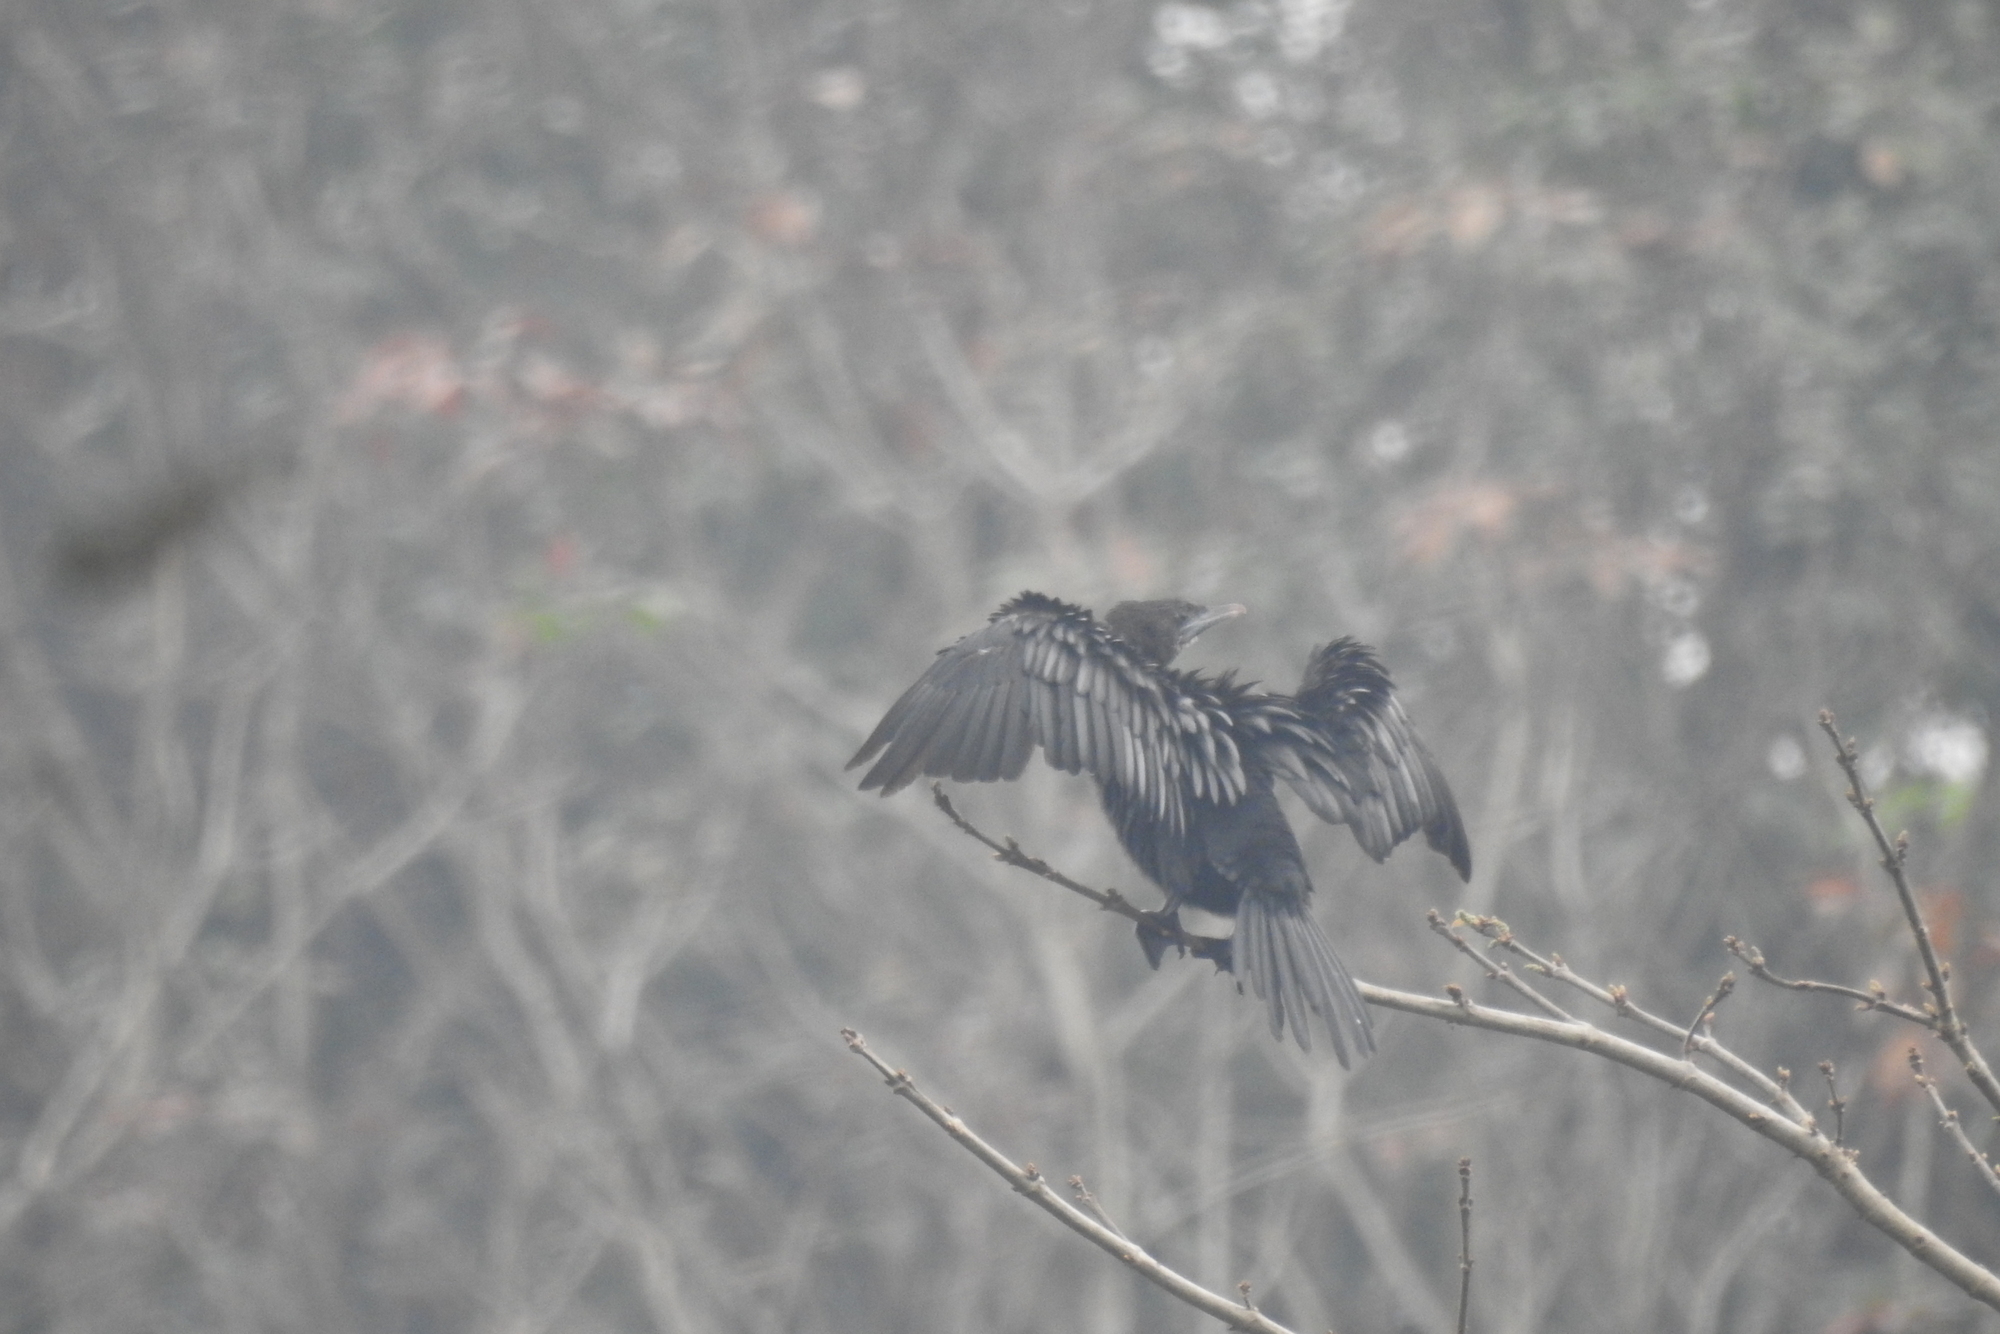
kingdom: Animalia
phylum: Chordata
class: Aves
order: Suliformes
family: Phalacrocoracidae
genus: Microcarbo
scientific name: Microcarbo niger
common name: Little cormorant
